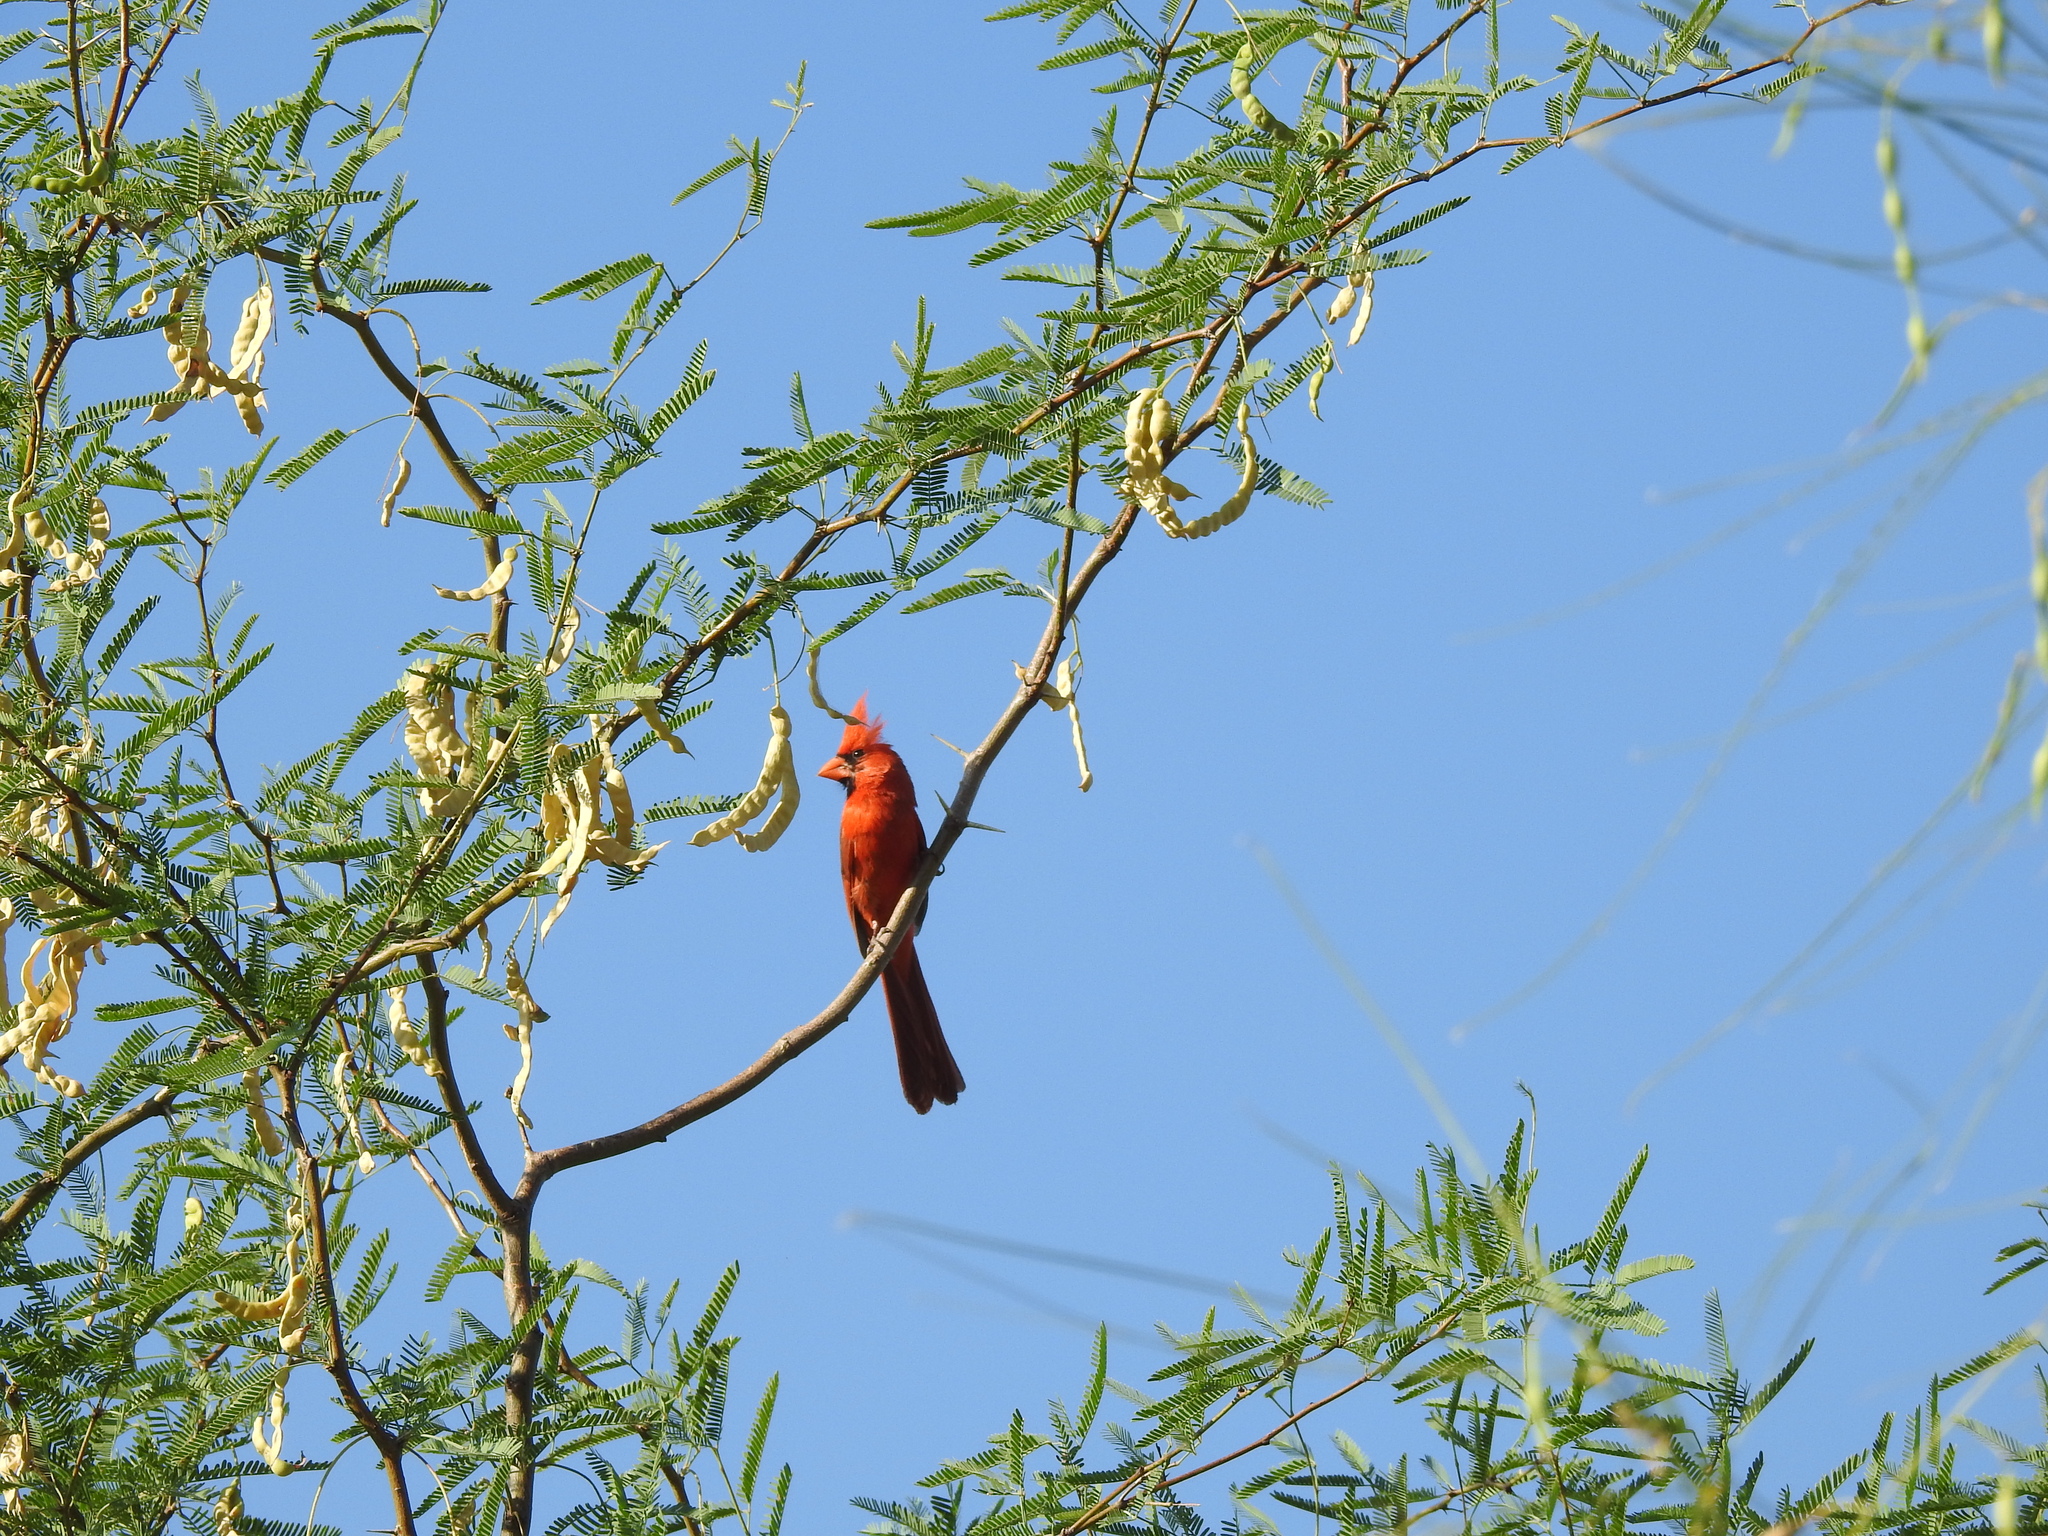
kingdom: Animalia
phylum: Chordata
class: Aves
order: Passeriformes
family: Cardinalidae
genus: Cardinalis
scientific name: Cardinalis cardinalis
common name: Northern cardinal
